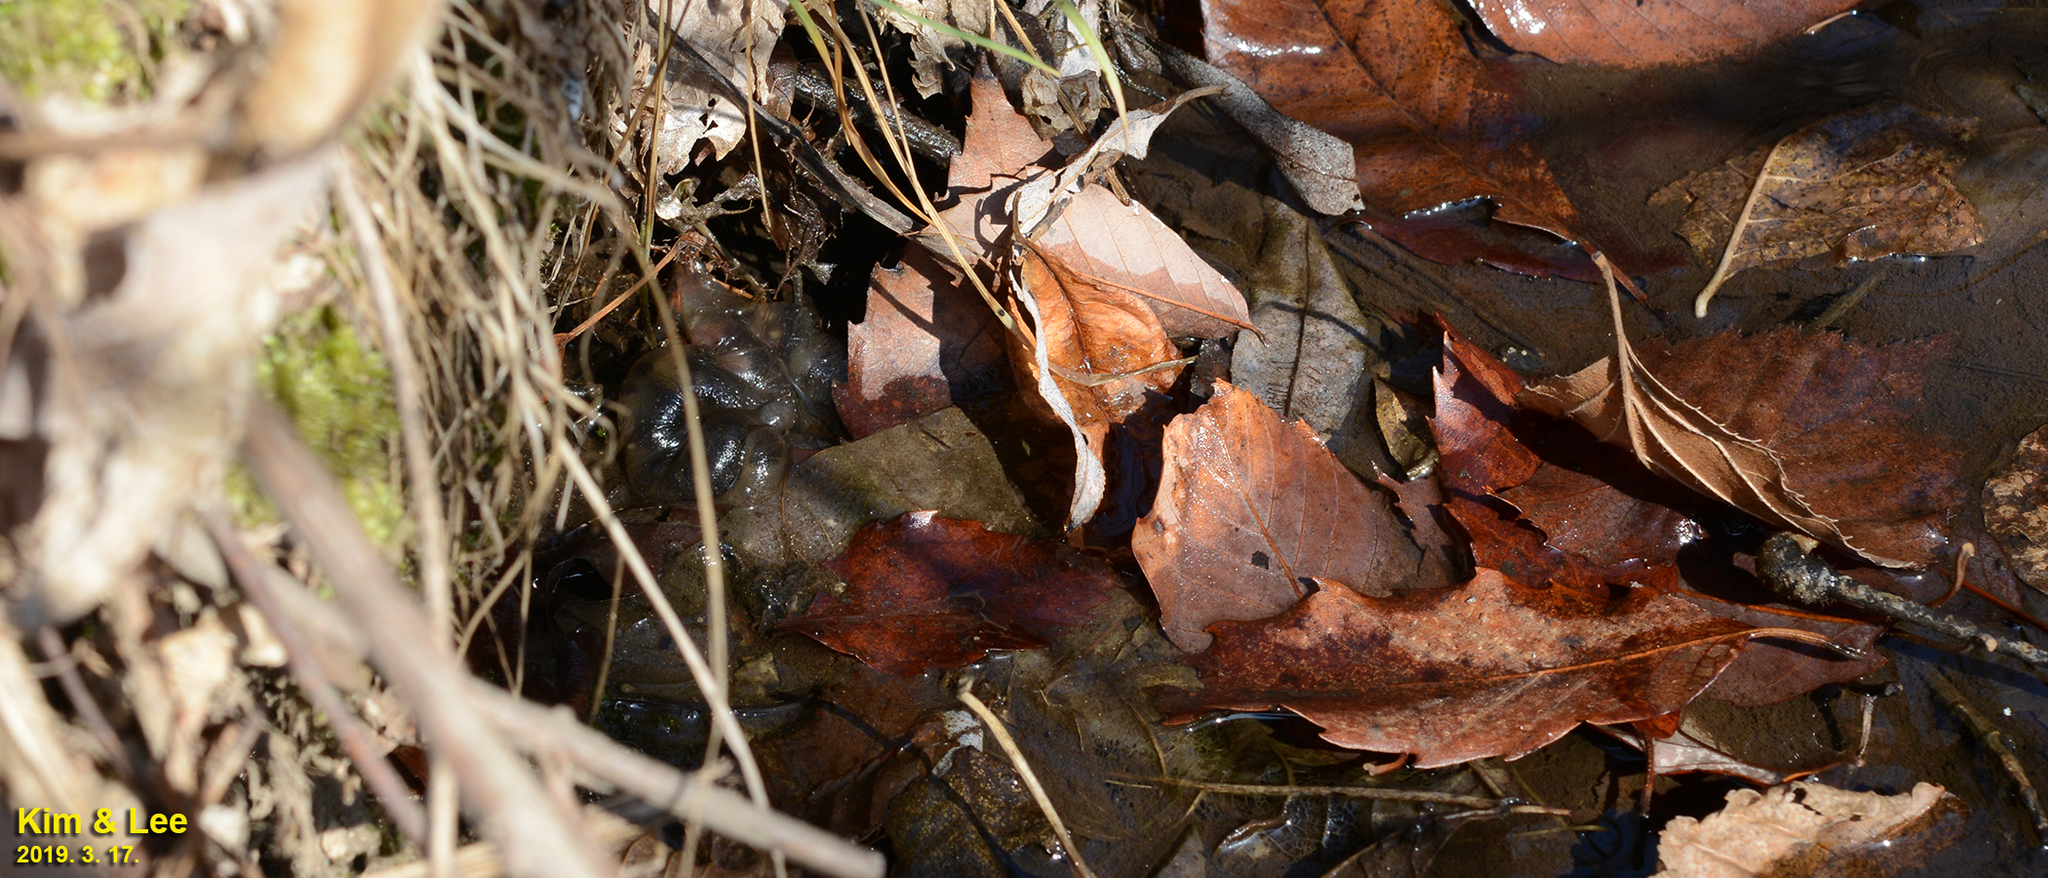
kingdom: Animalia
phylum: Chordata
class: Amphibia
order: Caudata
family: Hynobiidae
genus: Hynobius
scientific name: Hynobius leechii
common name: Gensan salamander
